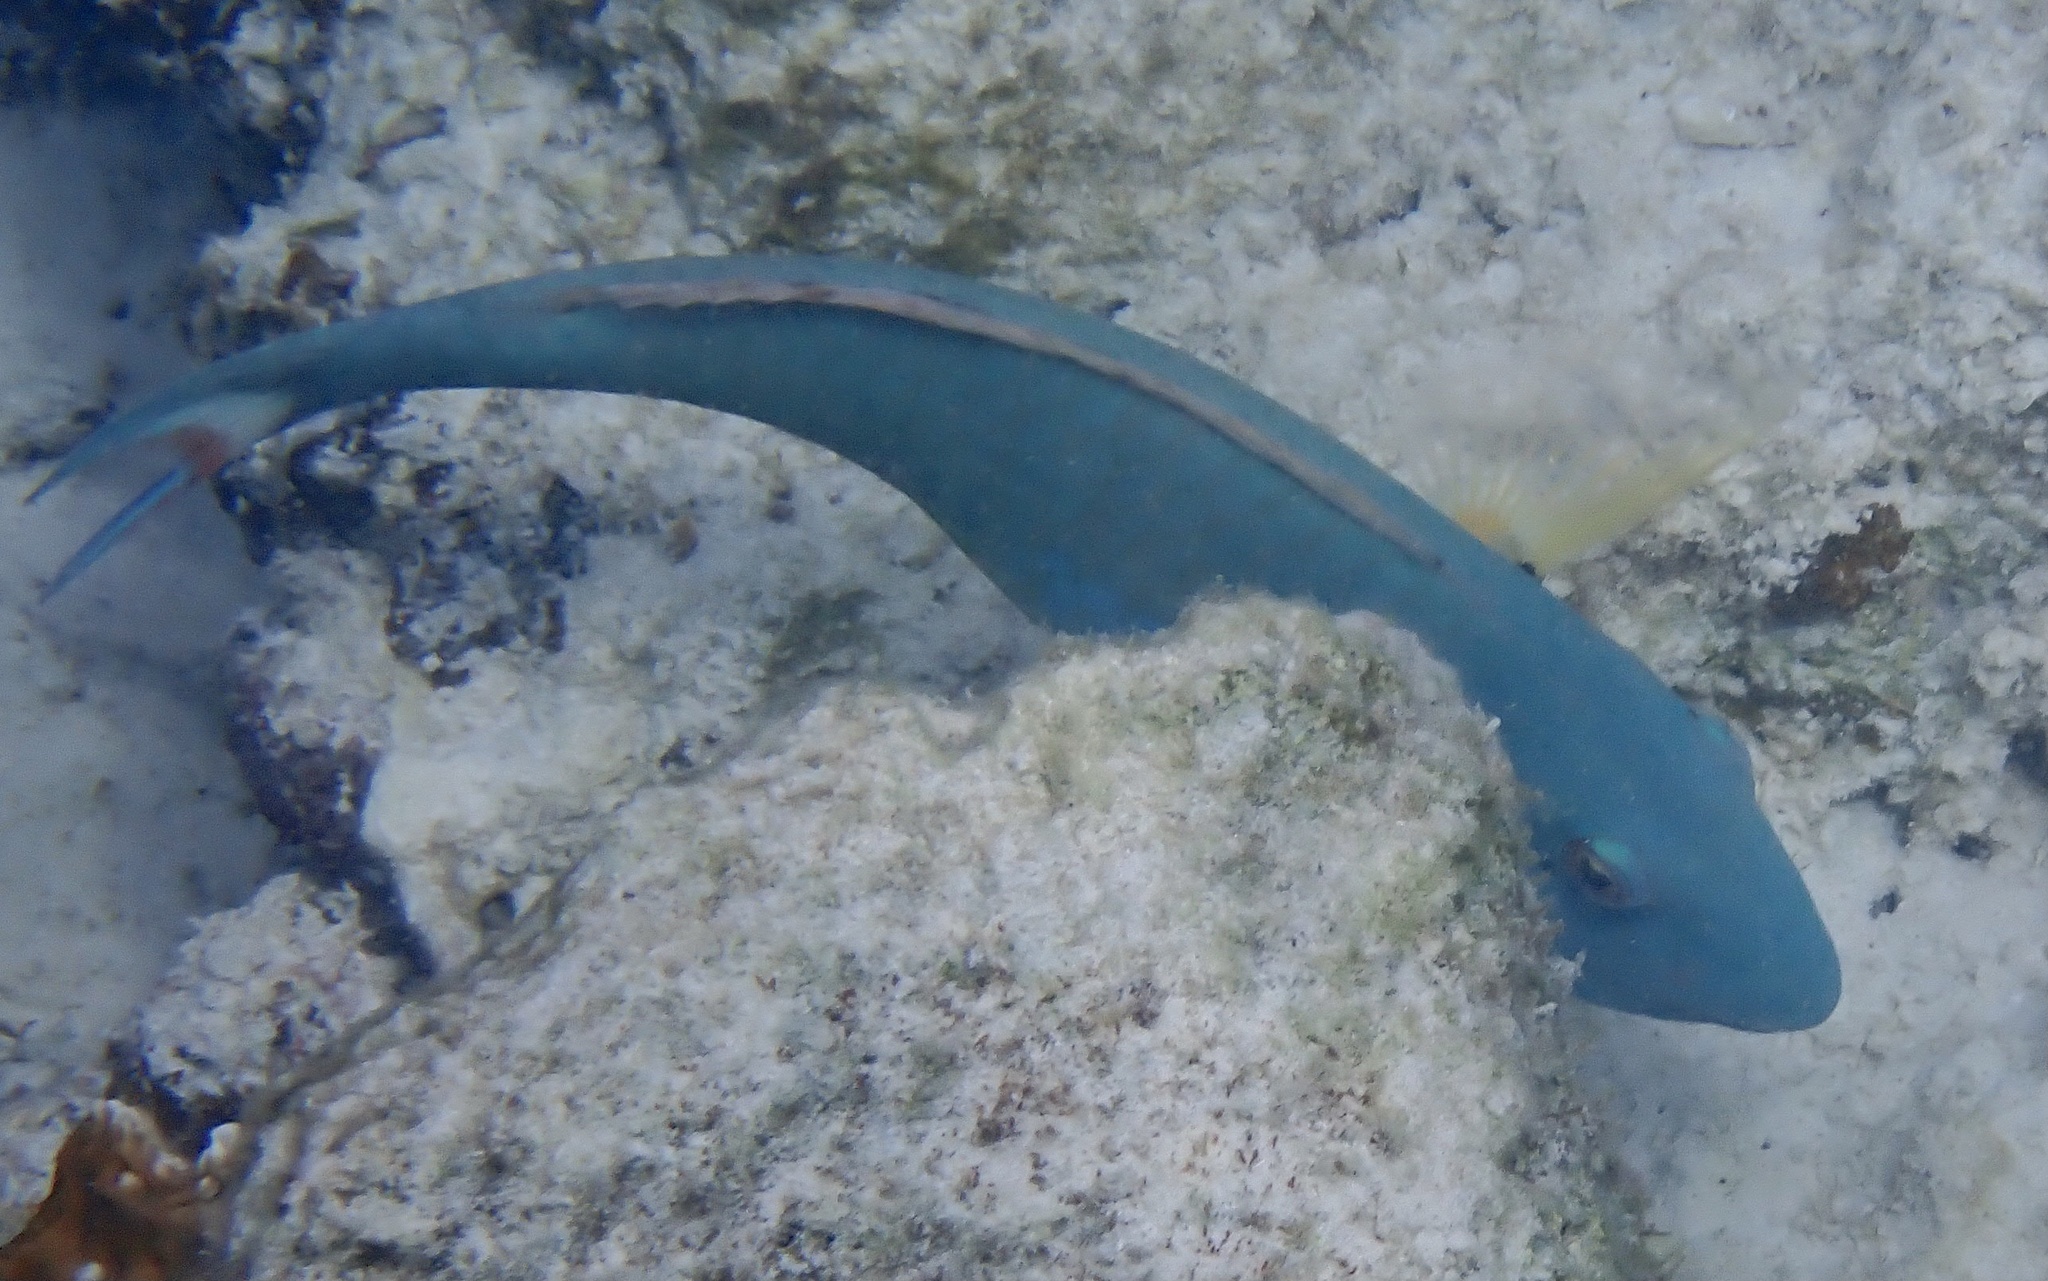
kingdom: Animalia
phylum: Chordata
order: Perciformes
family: Scaridae
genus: Sparisoma
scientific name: Sparisoma chrysopterum
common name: Redtail parrotfish
